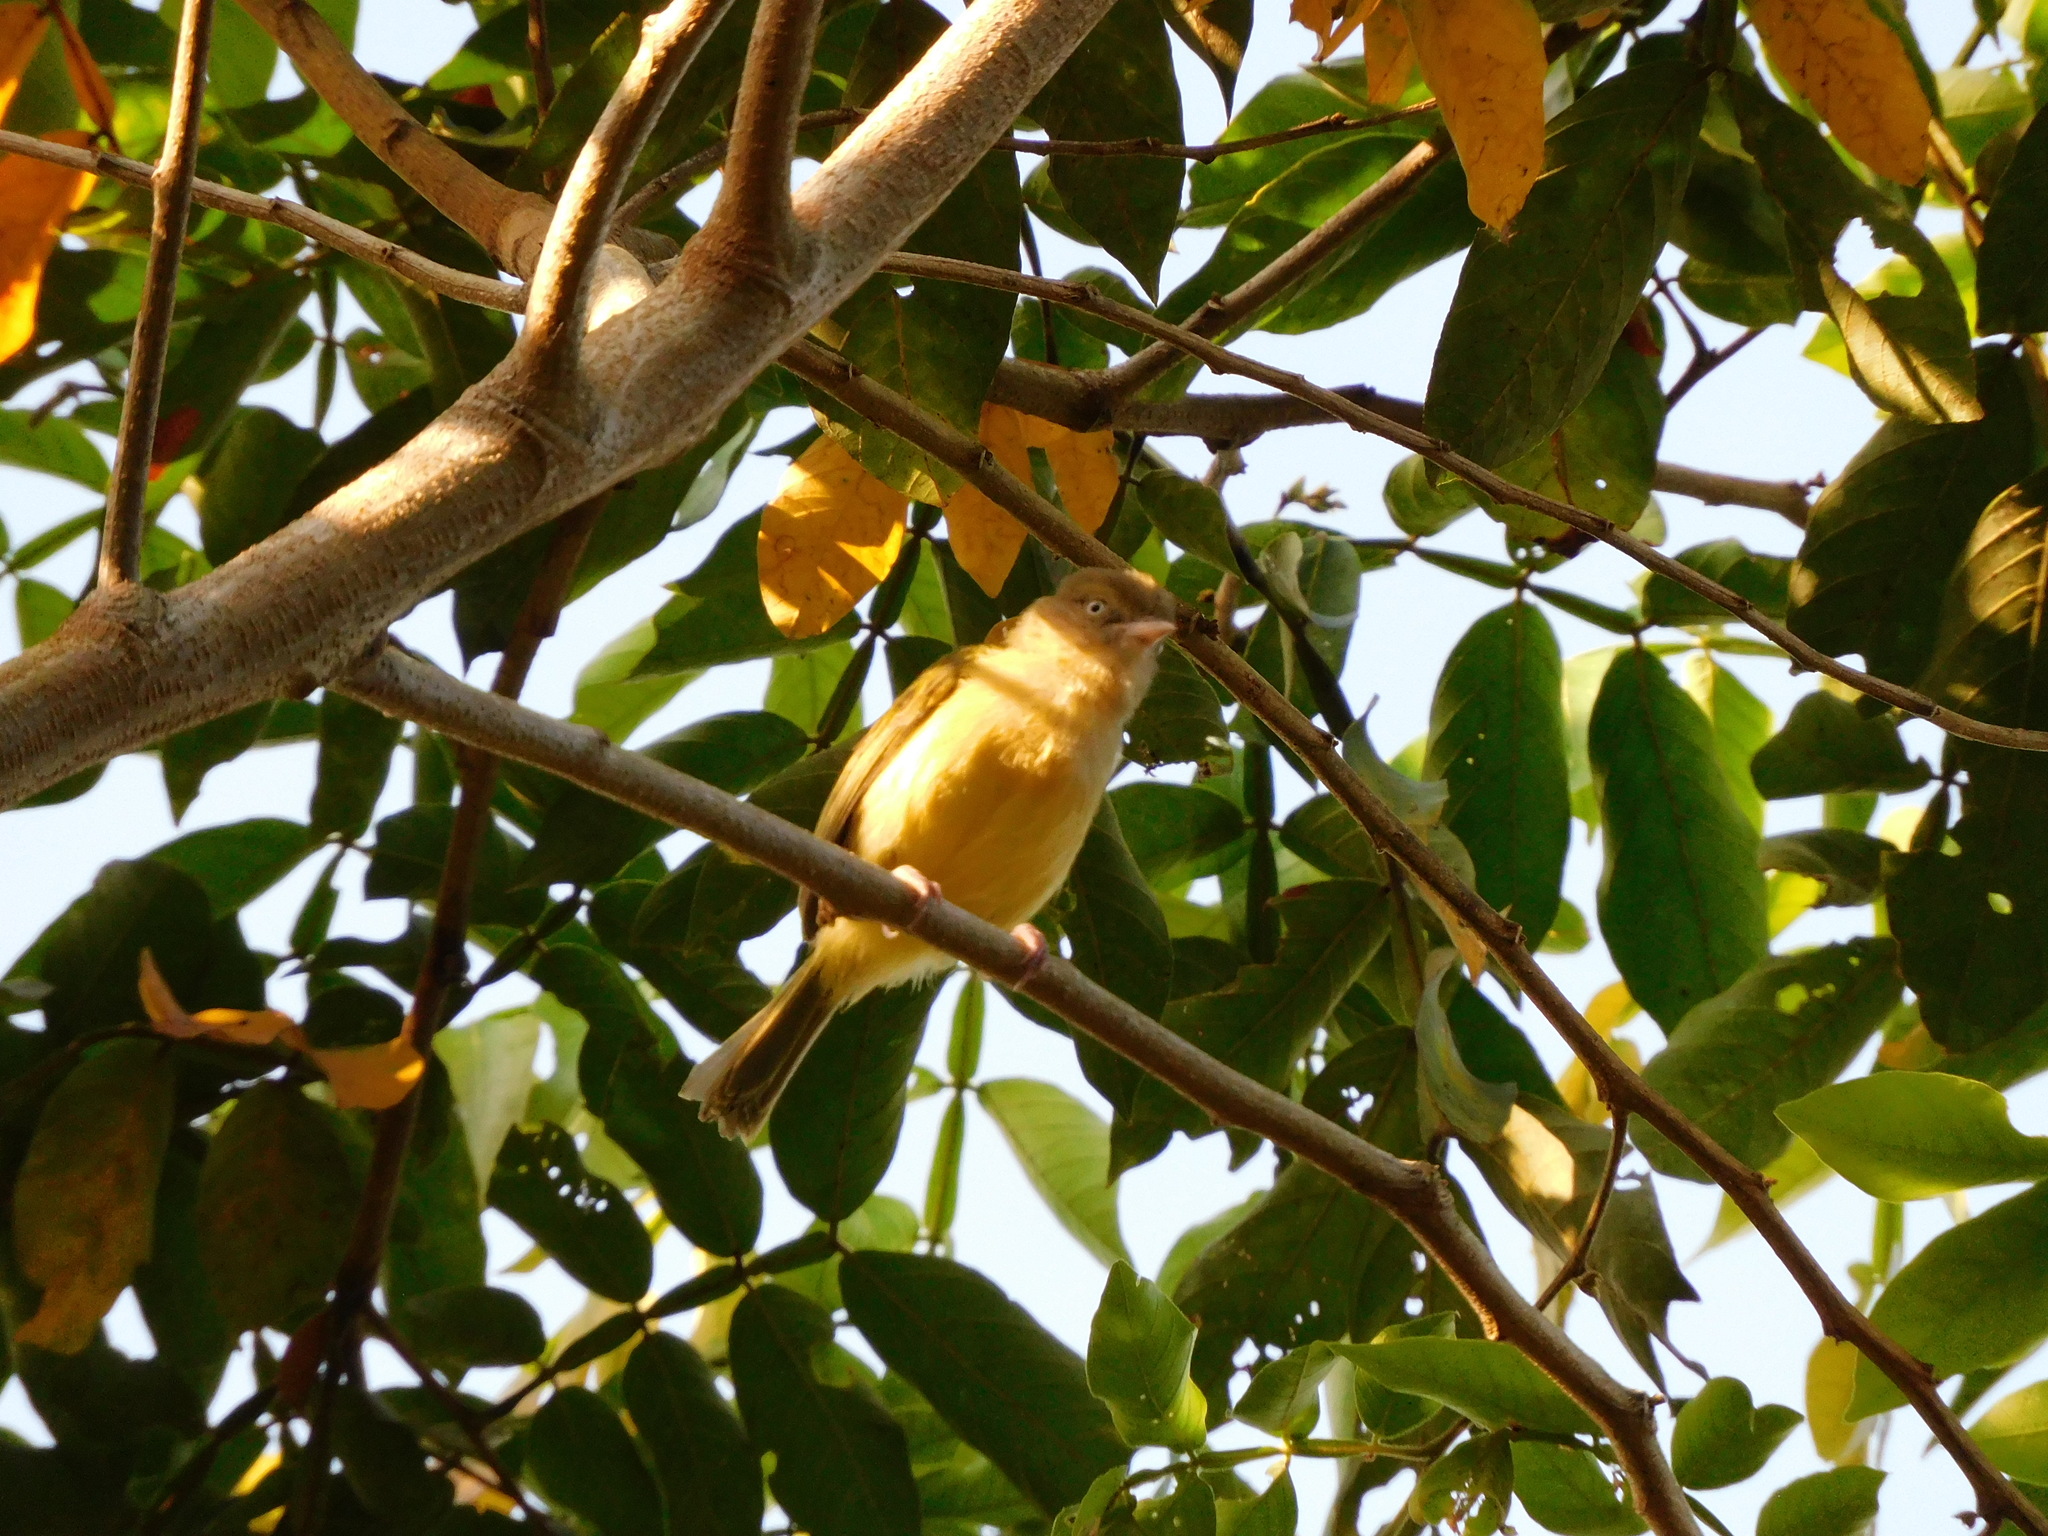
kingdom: Animalia
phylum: Chordata
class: Aves
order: Passeriformes
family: Vireonidae
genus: Hylophilus
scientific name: Hylophilus flavipes
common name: Scrub greenlet
